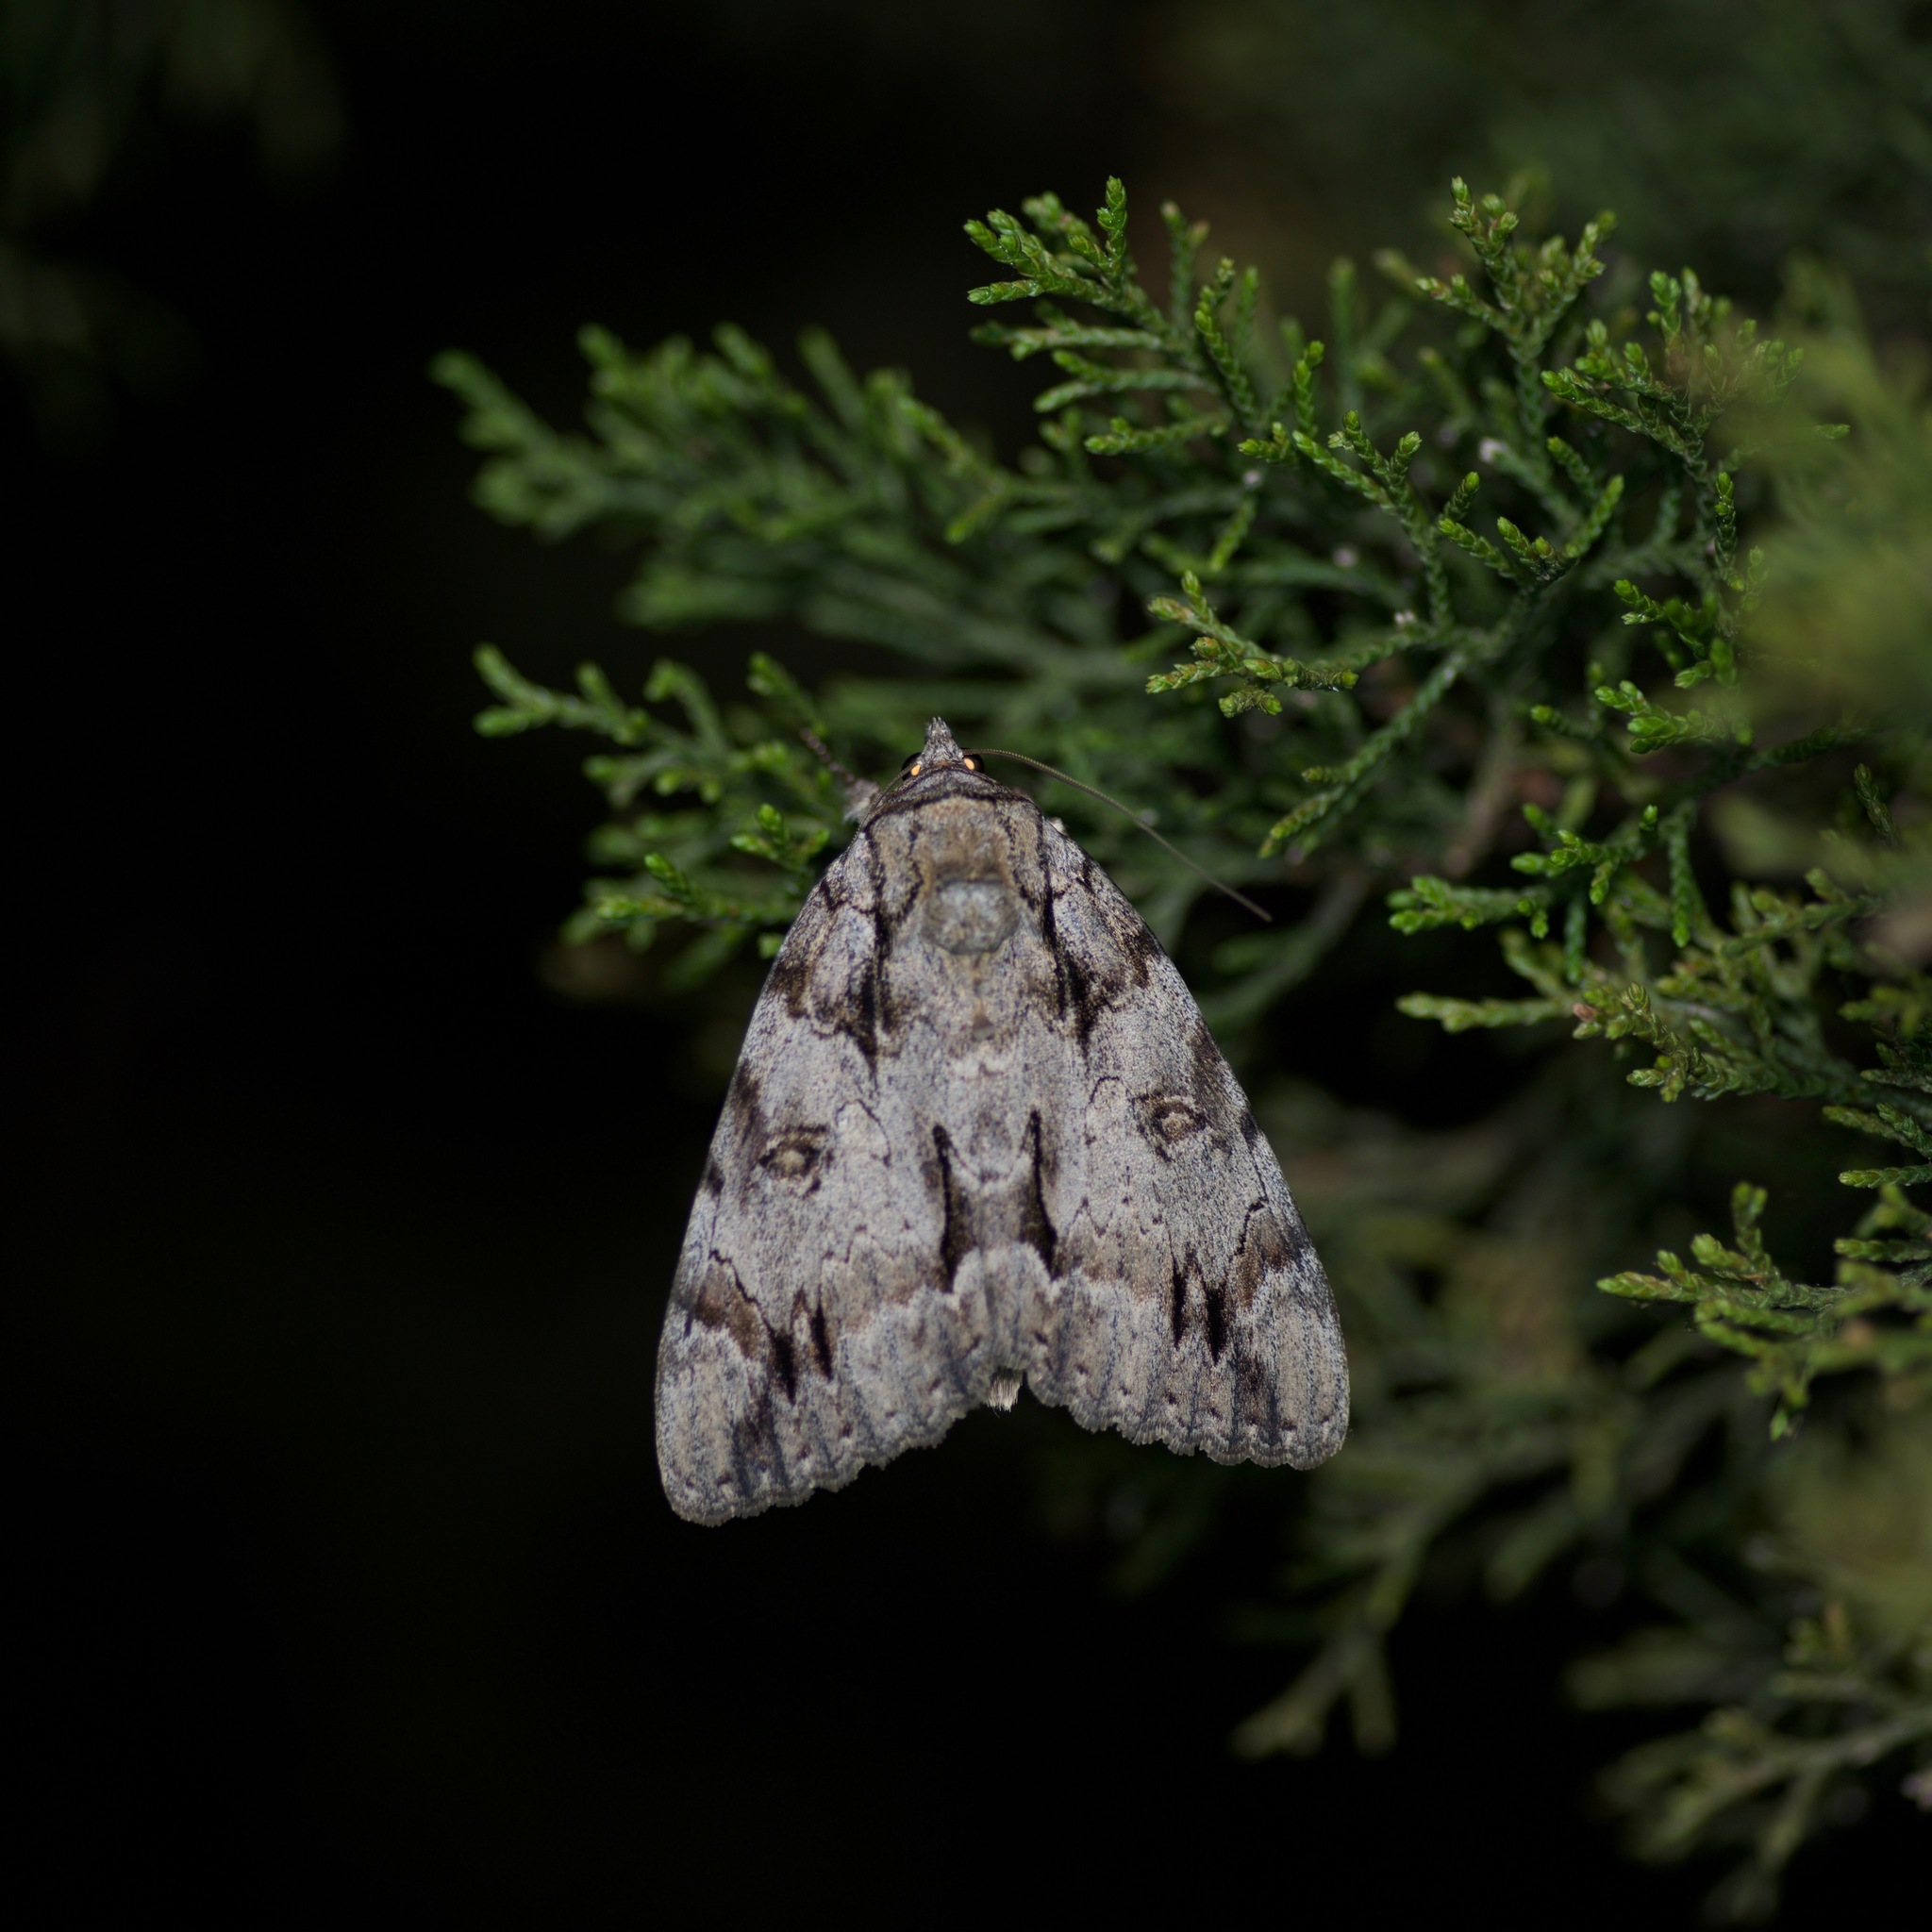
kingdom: Animalia
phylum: Arthropoda
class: Insecta
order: Lepidoptera
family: Erebidae
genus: Catocala
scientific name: Catocala neogama
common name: Bride underwing
